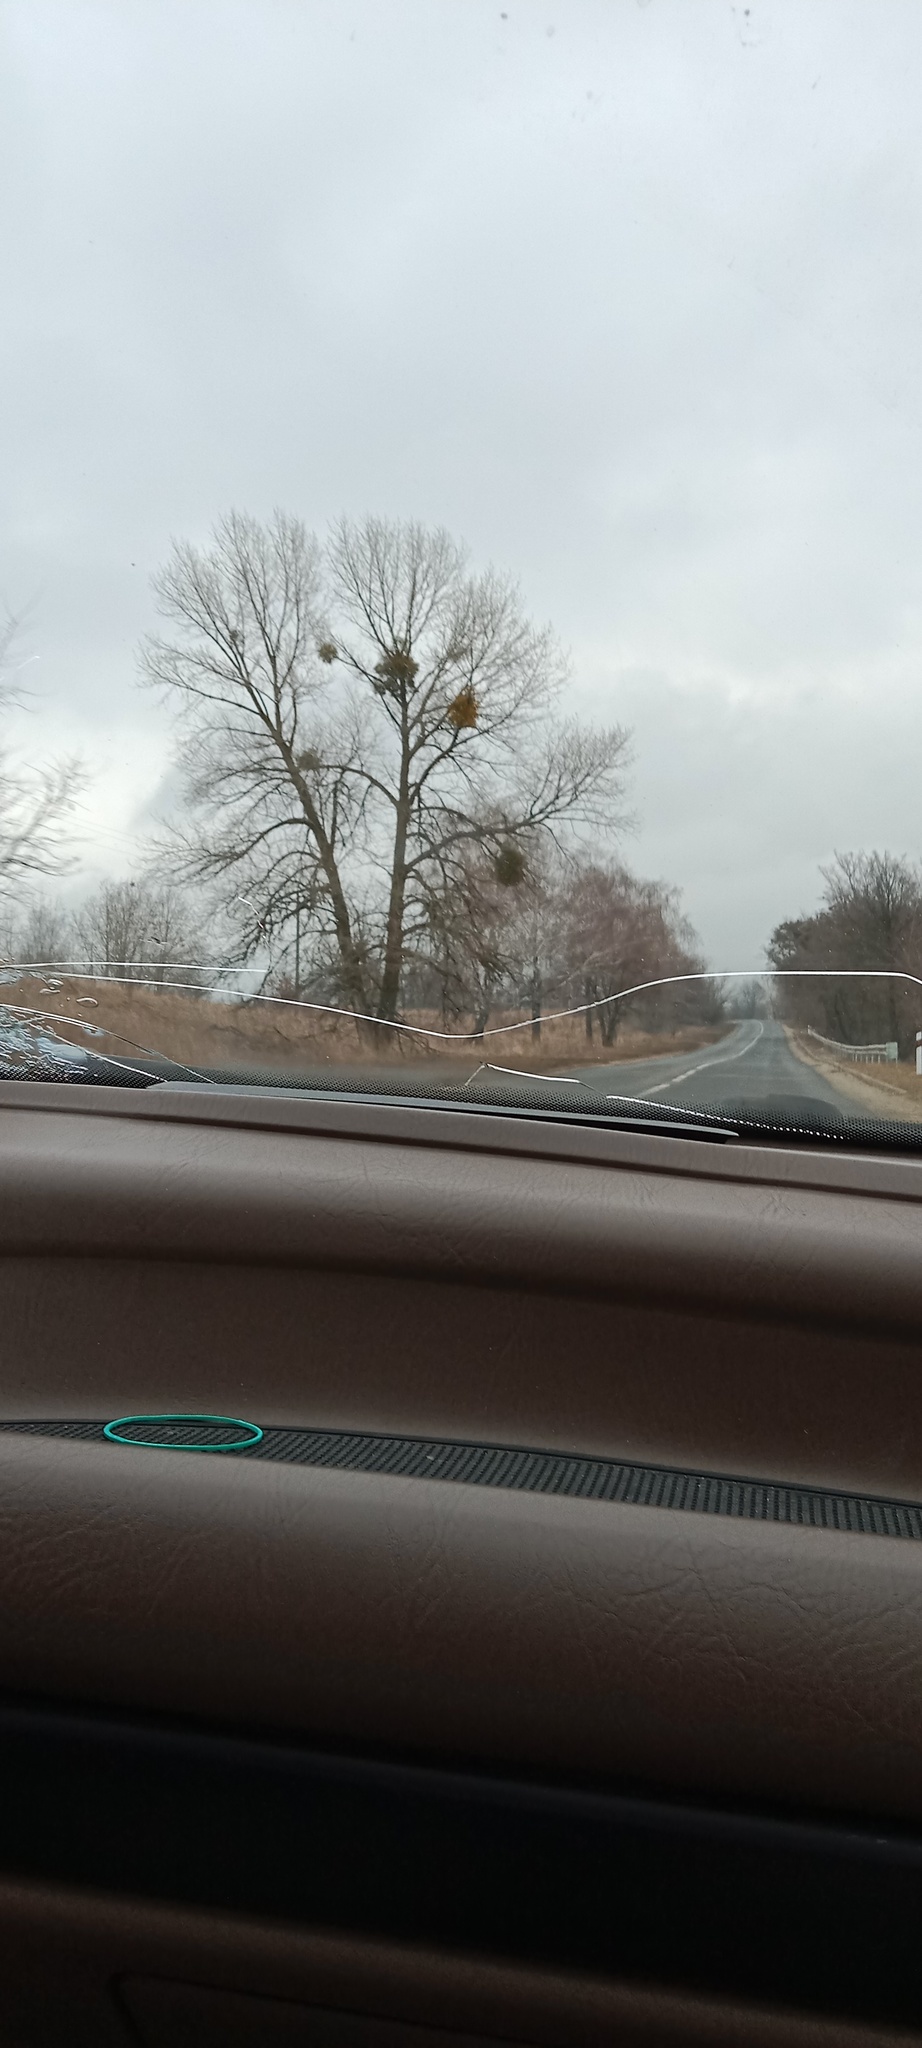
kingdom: Plantae
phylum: Tracheophyta
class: Magnoliopsida
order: Santalales
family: Viscaceae
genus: Viscum
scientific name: Viscum album
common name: Mistletoe
